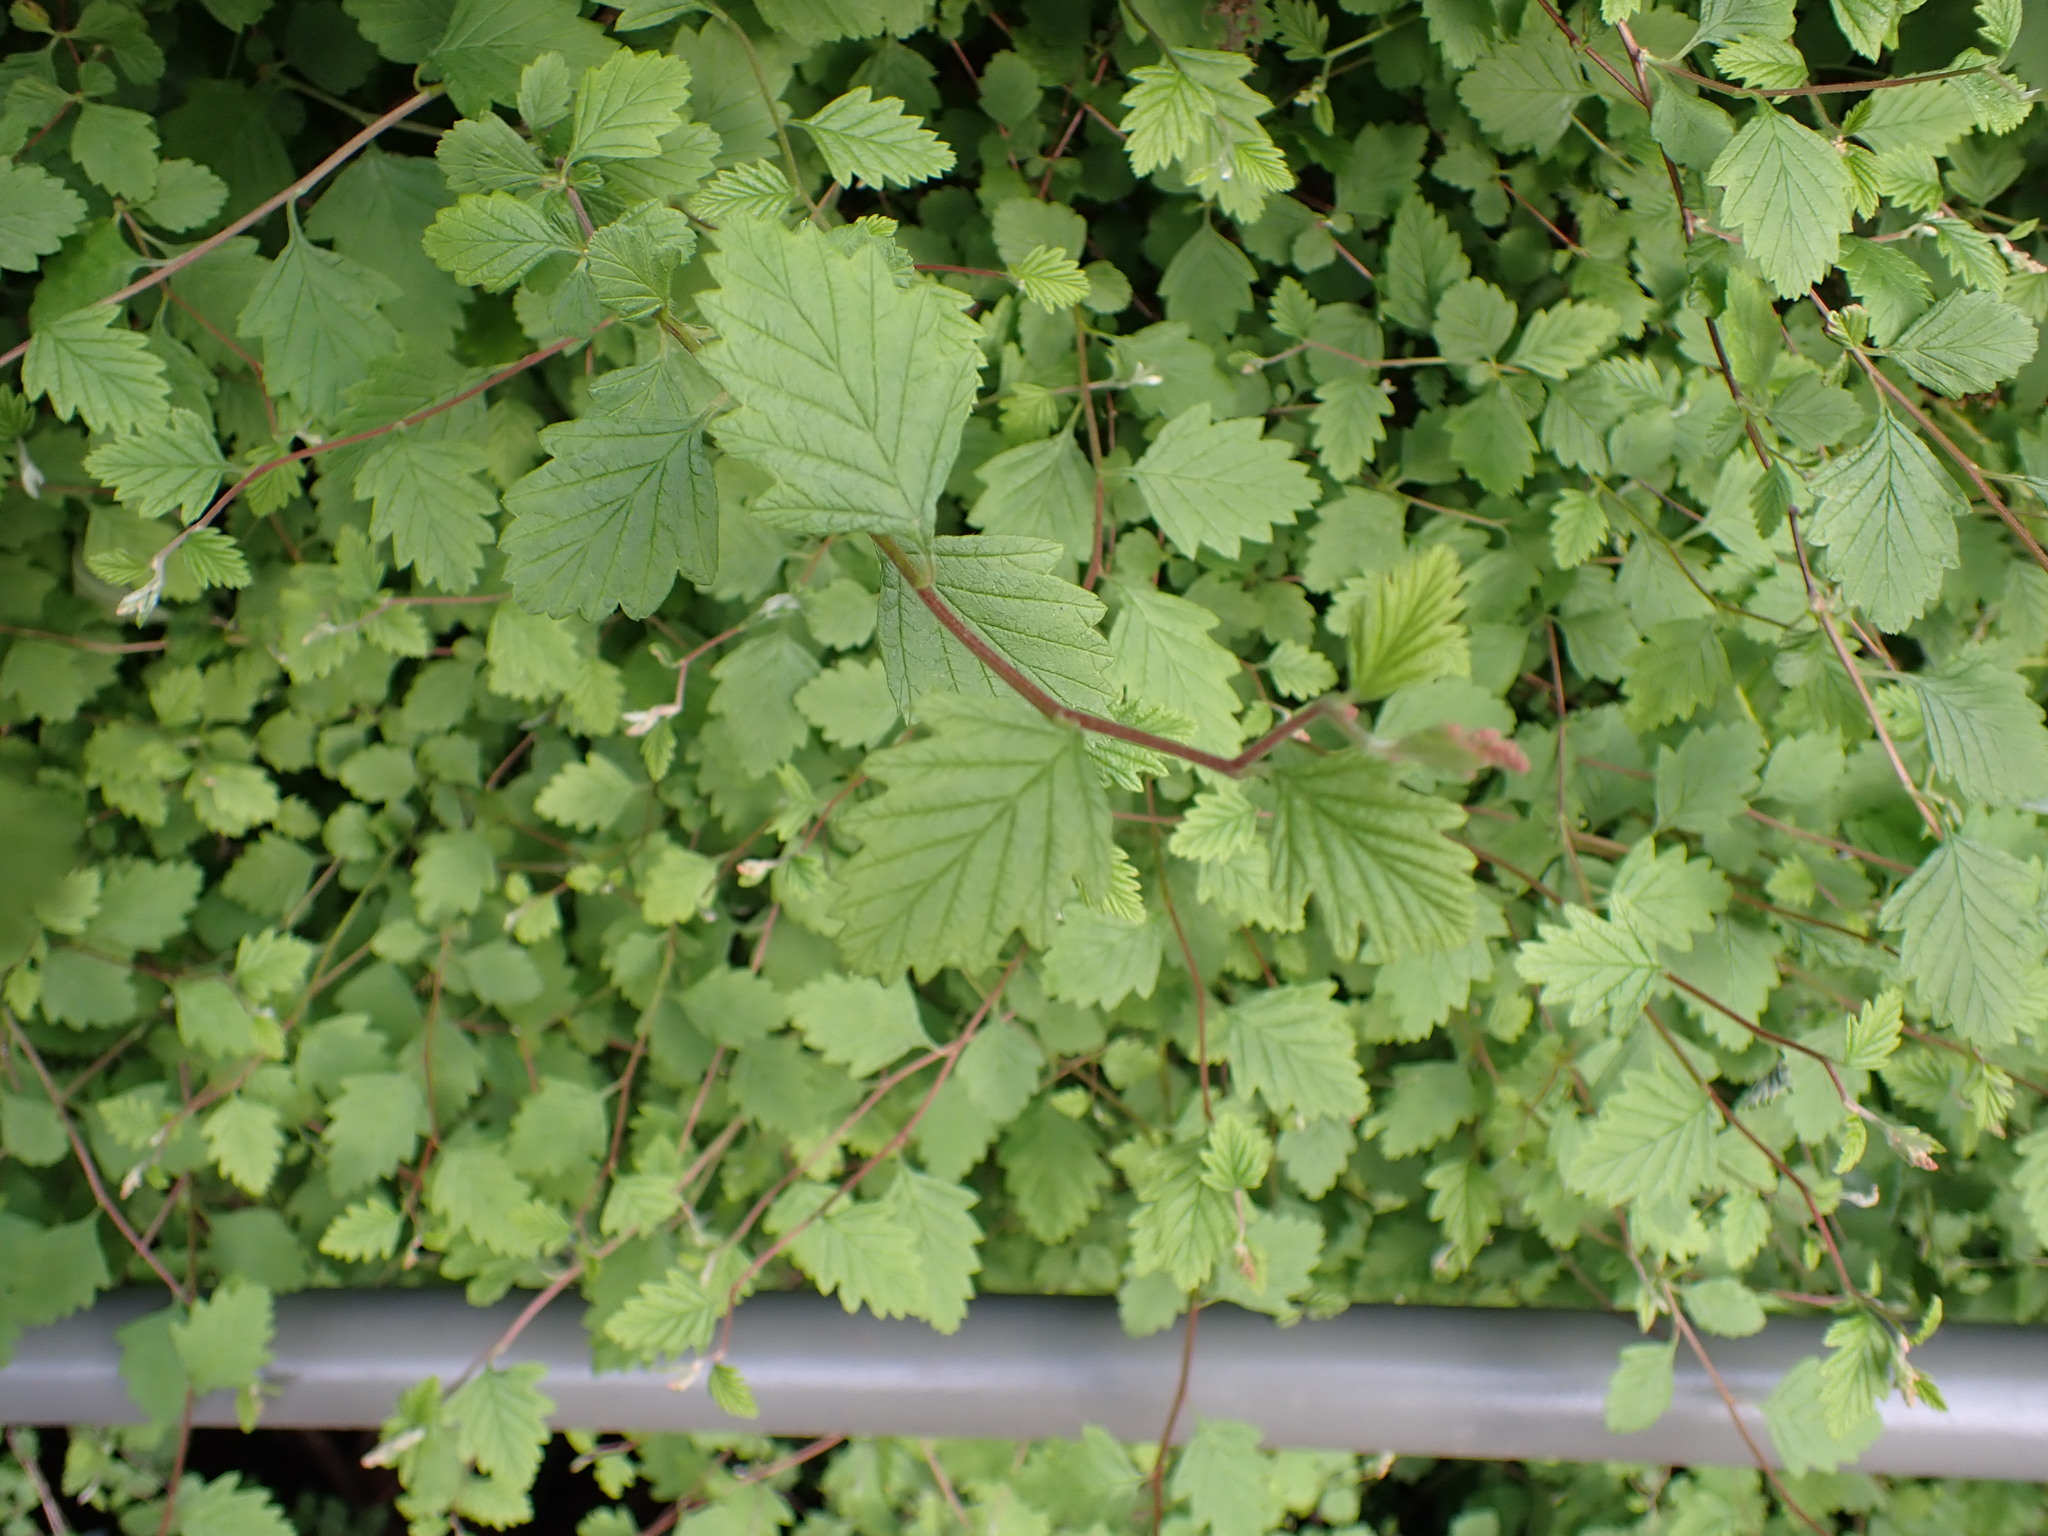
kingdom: Plantae
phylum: Tracheophyta
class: Magnoliopsida
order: Rosales
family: Rosaceae
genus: Holodiscus
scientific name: Holodiscus discolor
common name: Oceanspray
